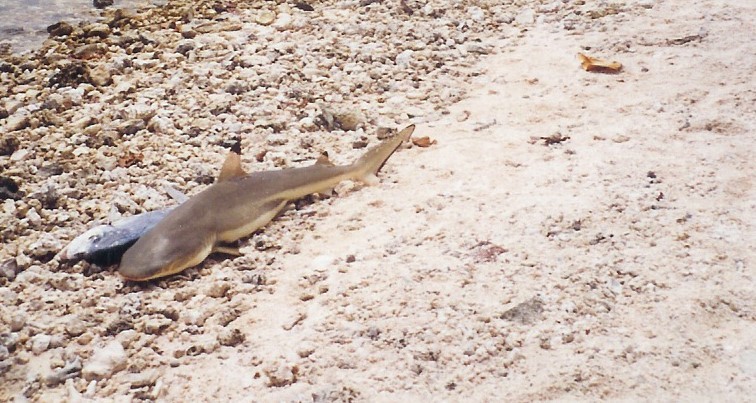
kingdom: Animalia
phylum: Chordata
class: Elasmobranchii
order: Carcharhiniformes
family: Carcharhinidae
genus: Carcharhinus
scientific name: Carcharhinus melanopterus
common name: Blacktip reef shark
